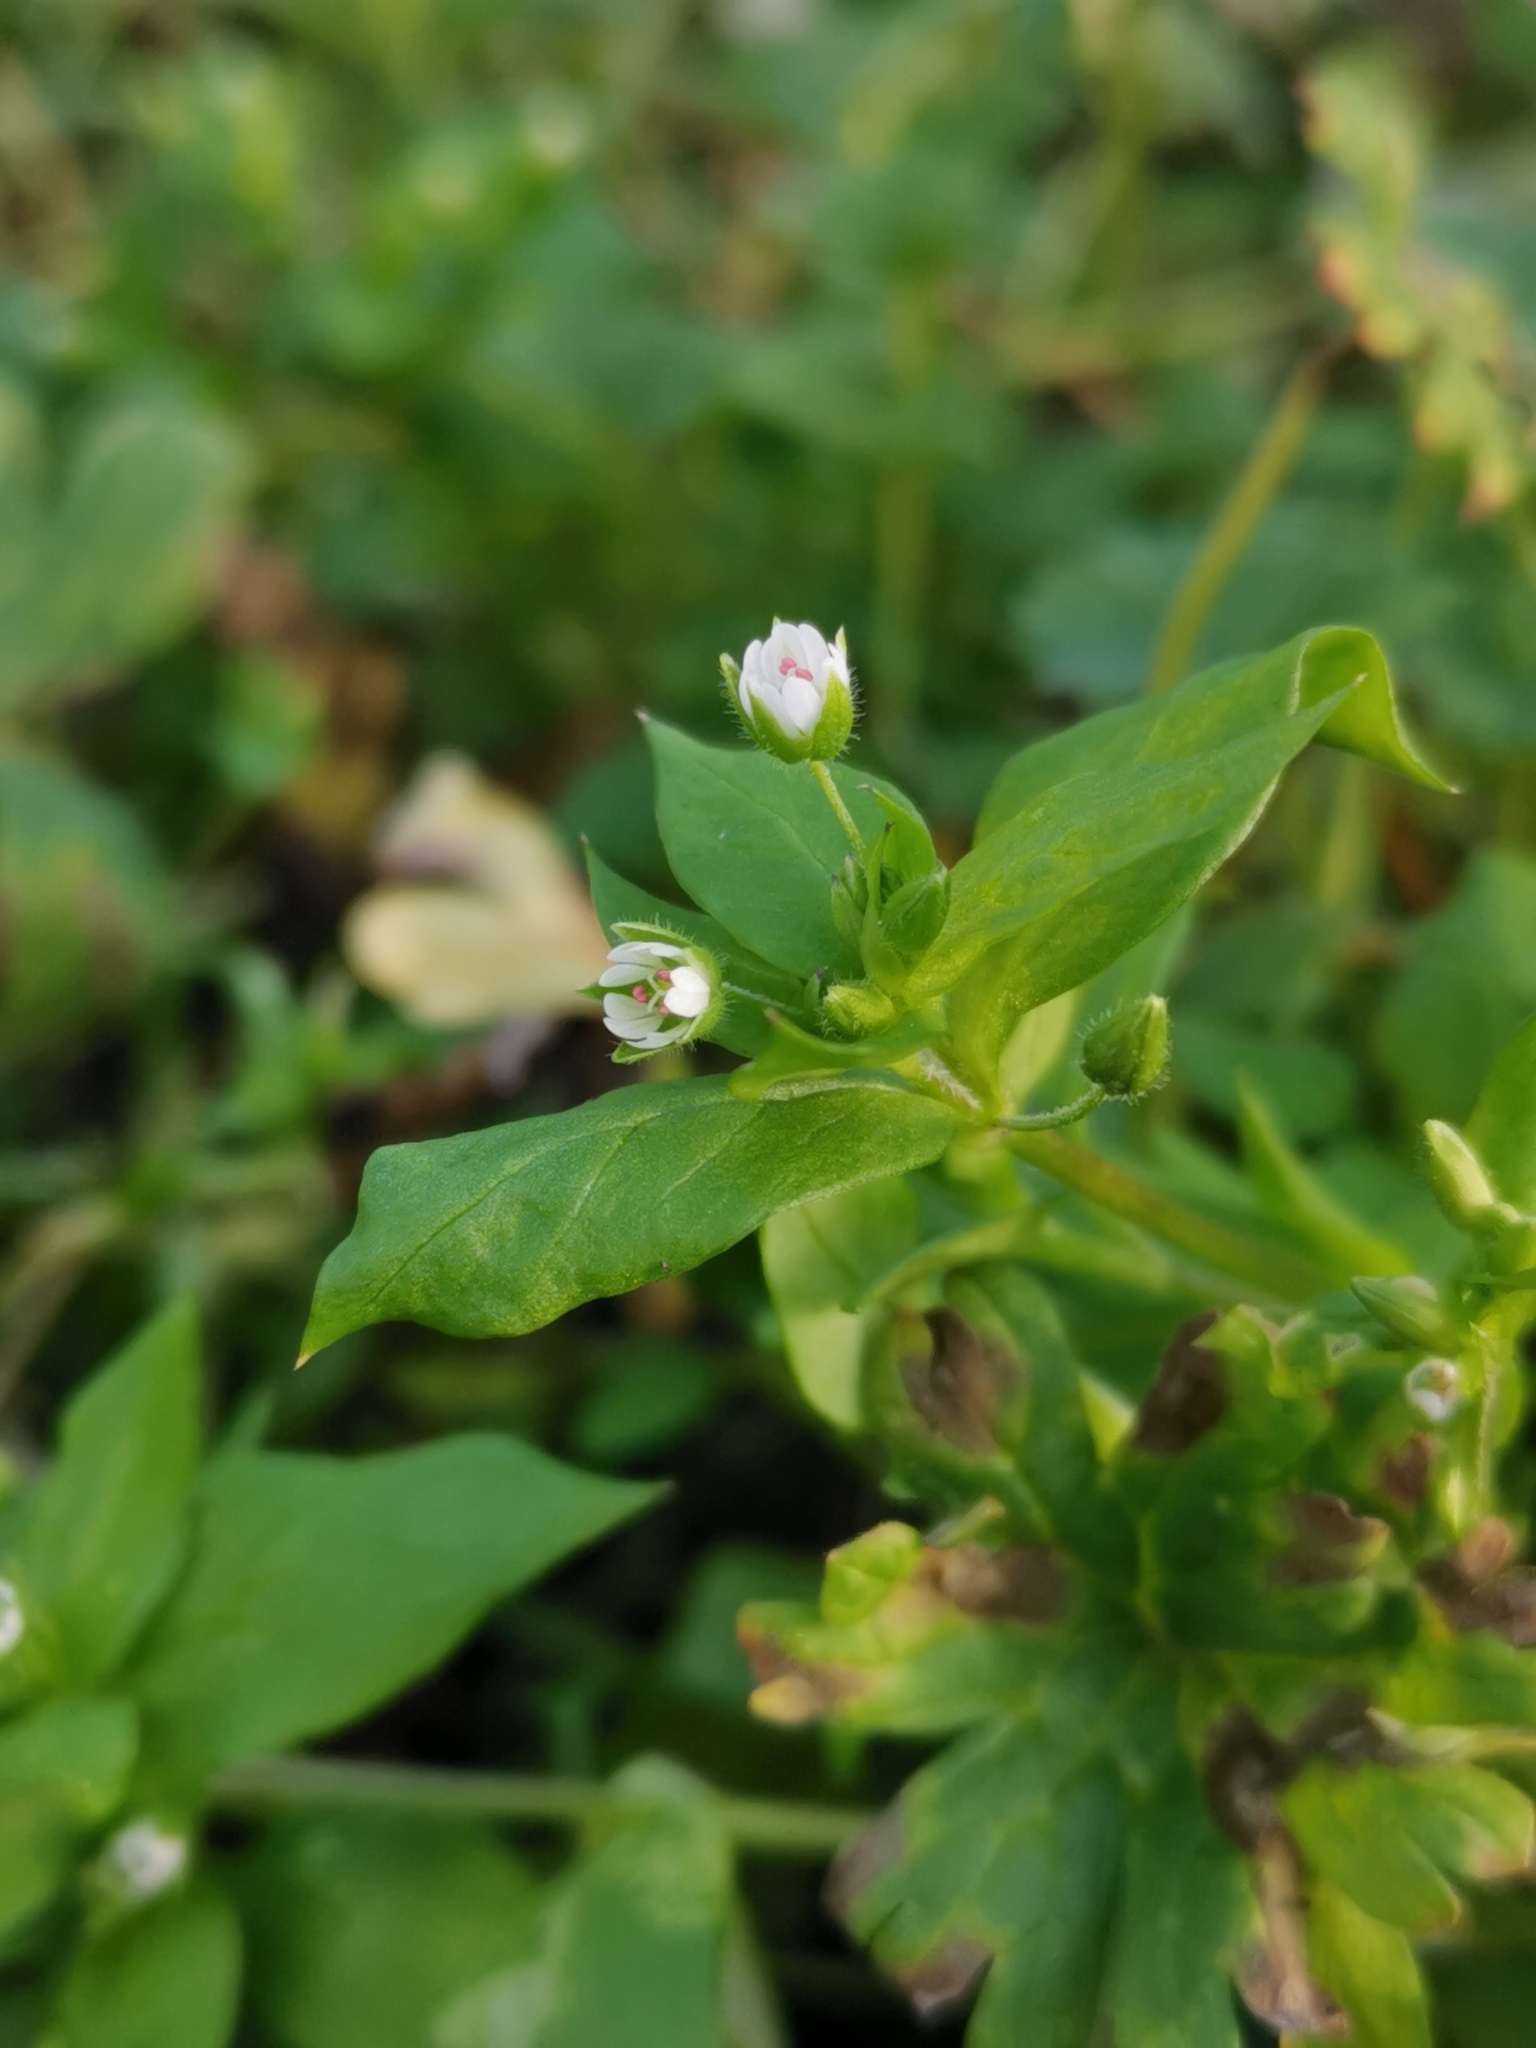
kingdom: Plantae
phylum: Tracheophyta
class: Magnoliopsida
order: Caryophyllales
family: Caryophyllaceae
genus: Stellaria
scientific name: Stellaria media
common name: Common chickweed
